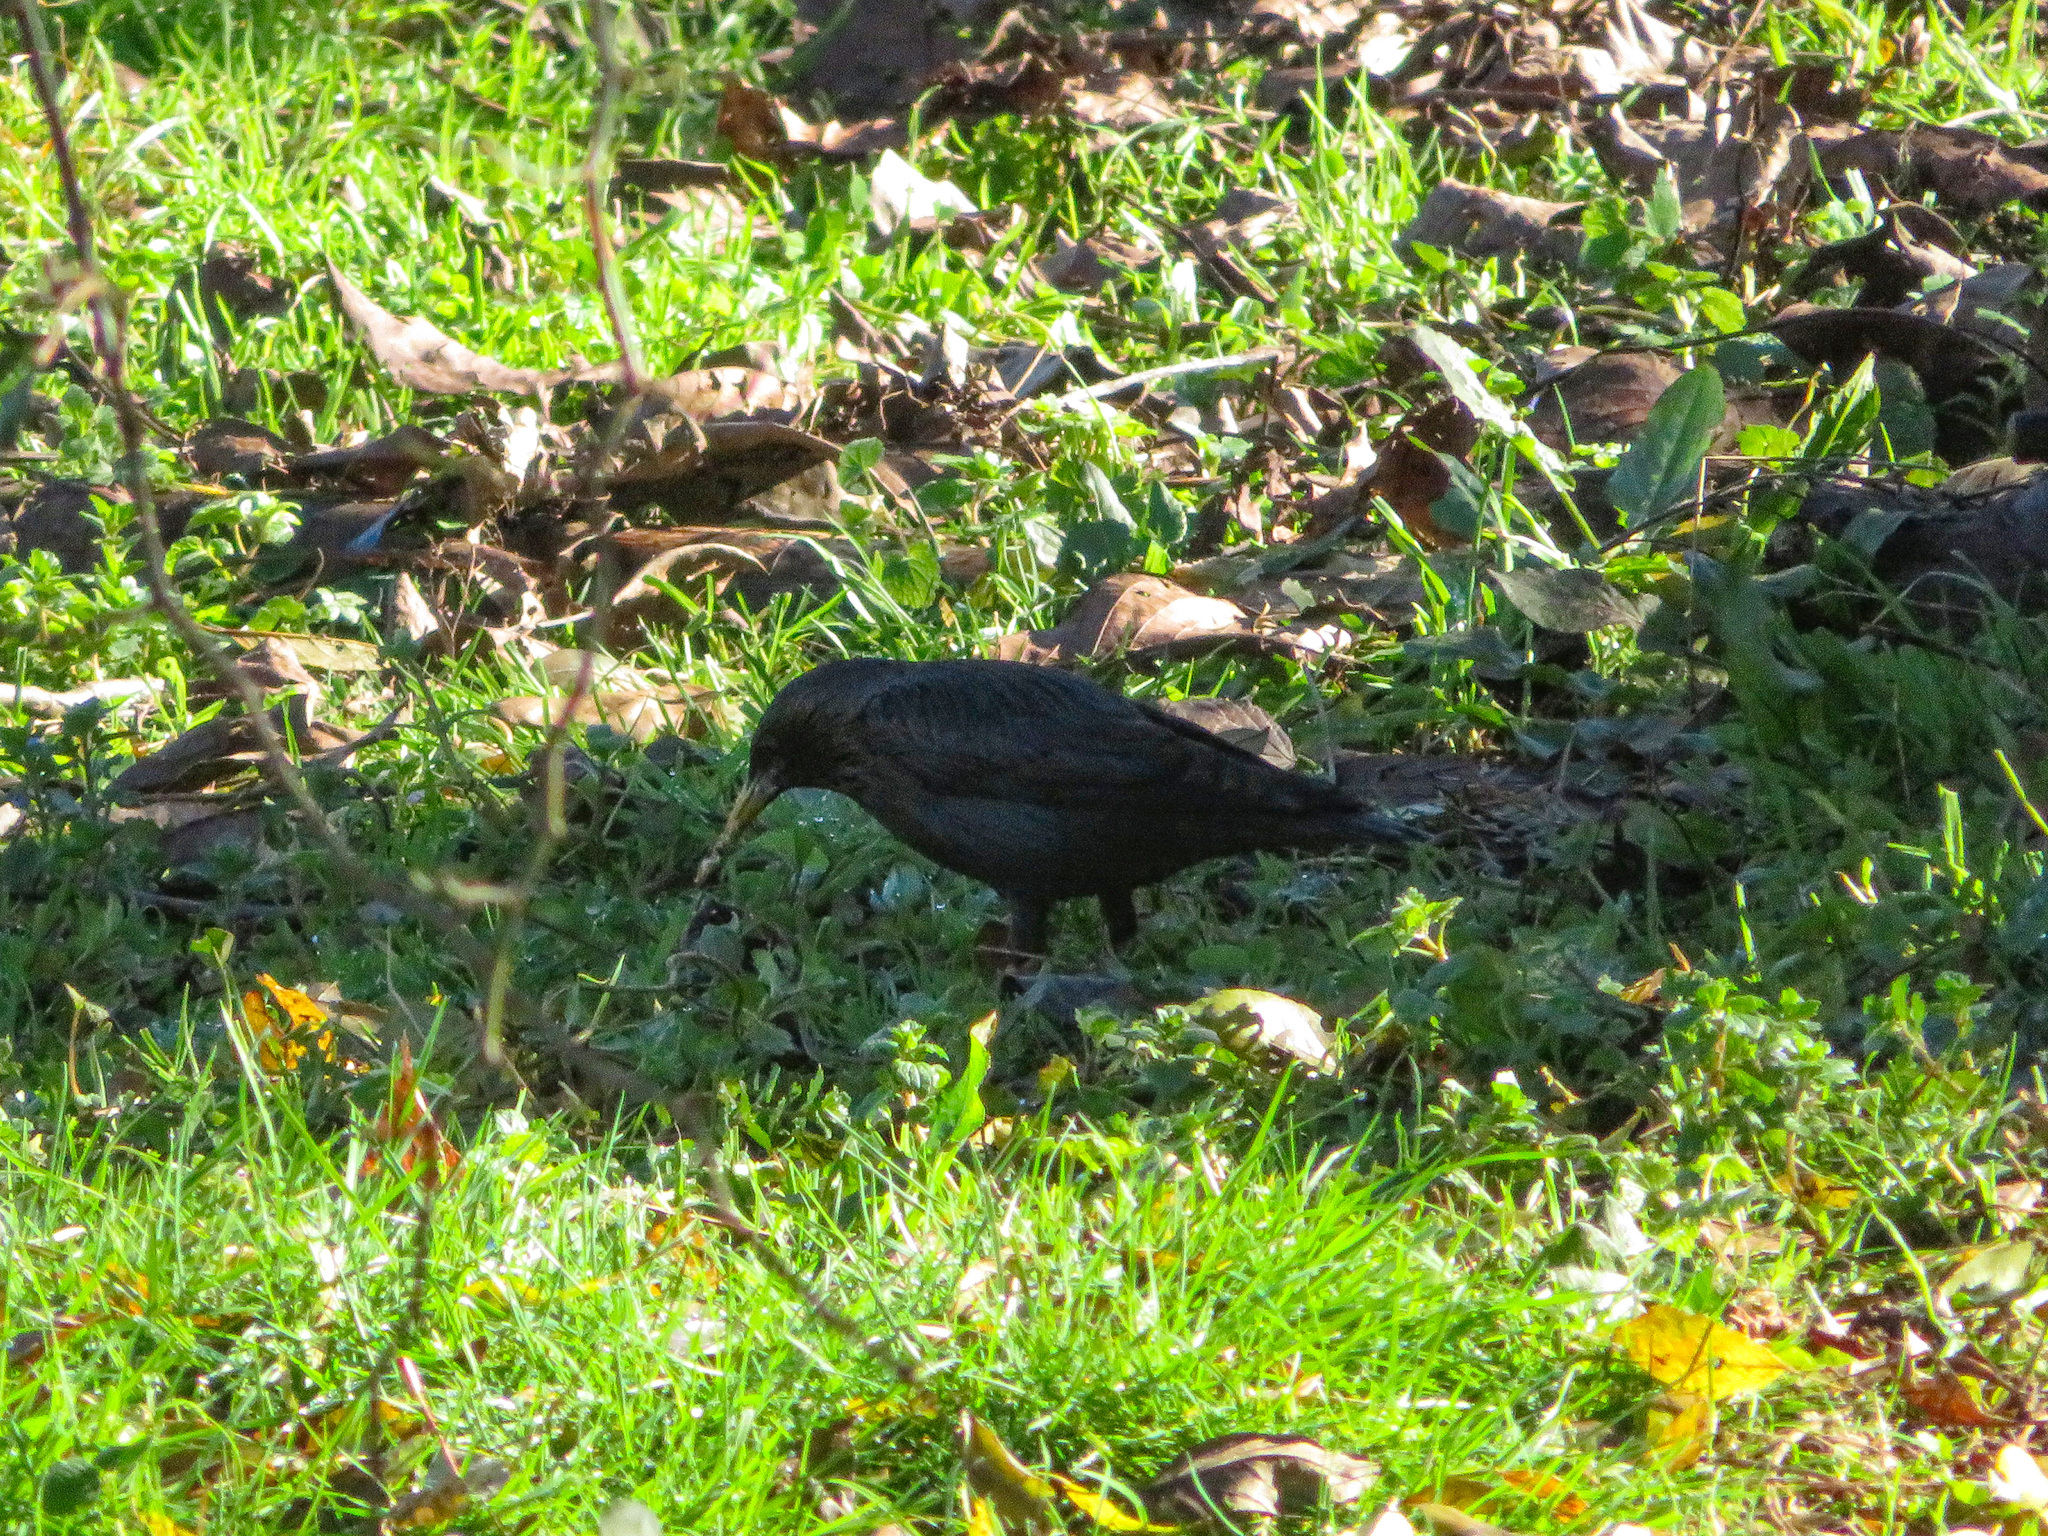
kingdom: Animalia
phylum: Chordata
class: Aves
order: Passeriformes
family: Sturnidae
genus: Sturnus
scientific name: Sturnus unicolor
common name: Spotless starling
